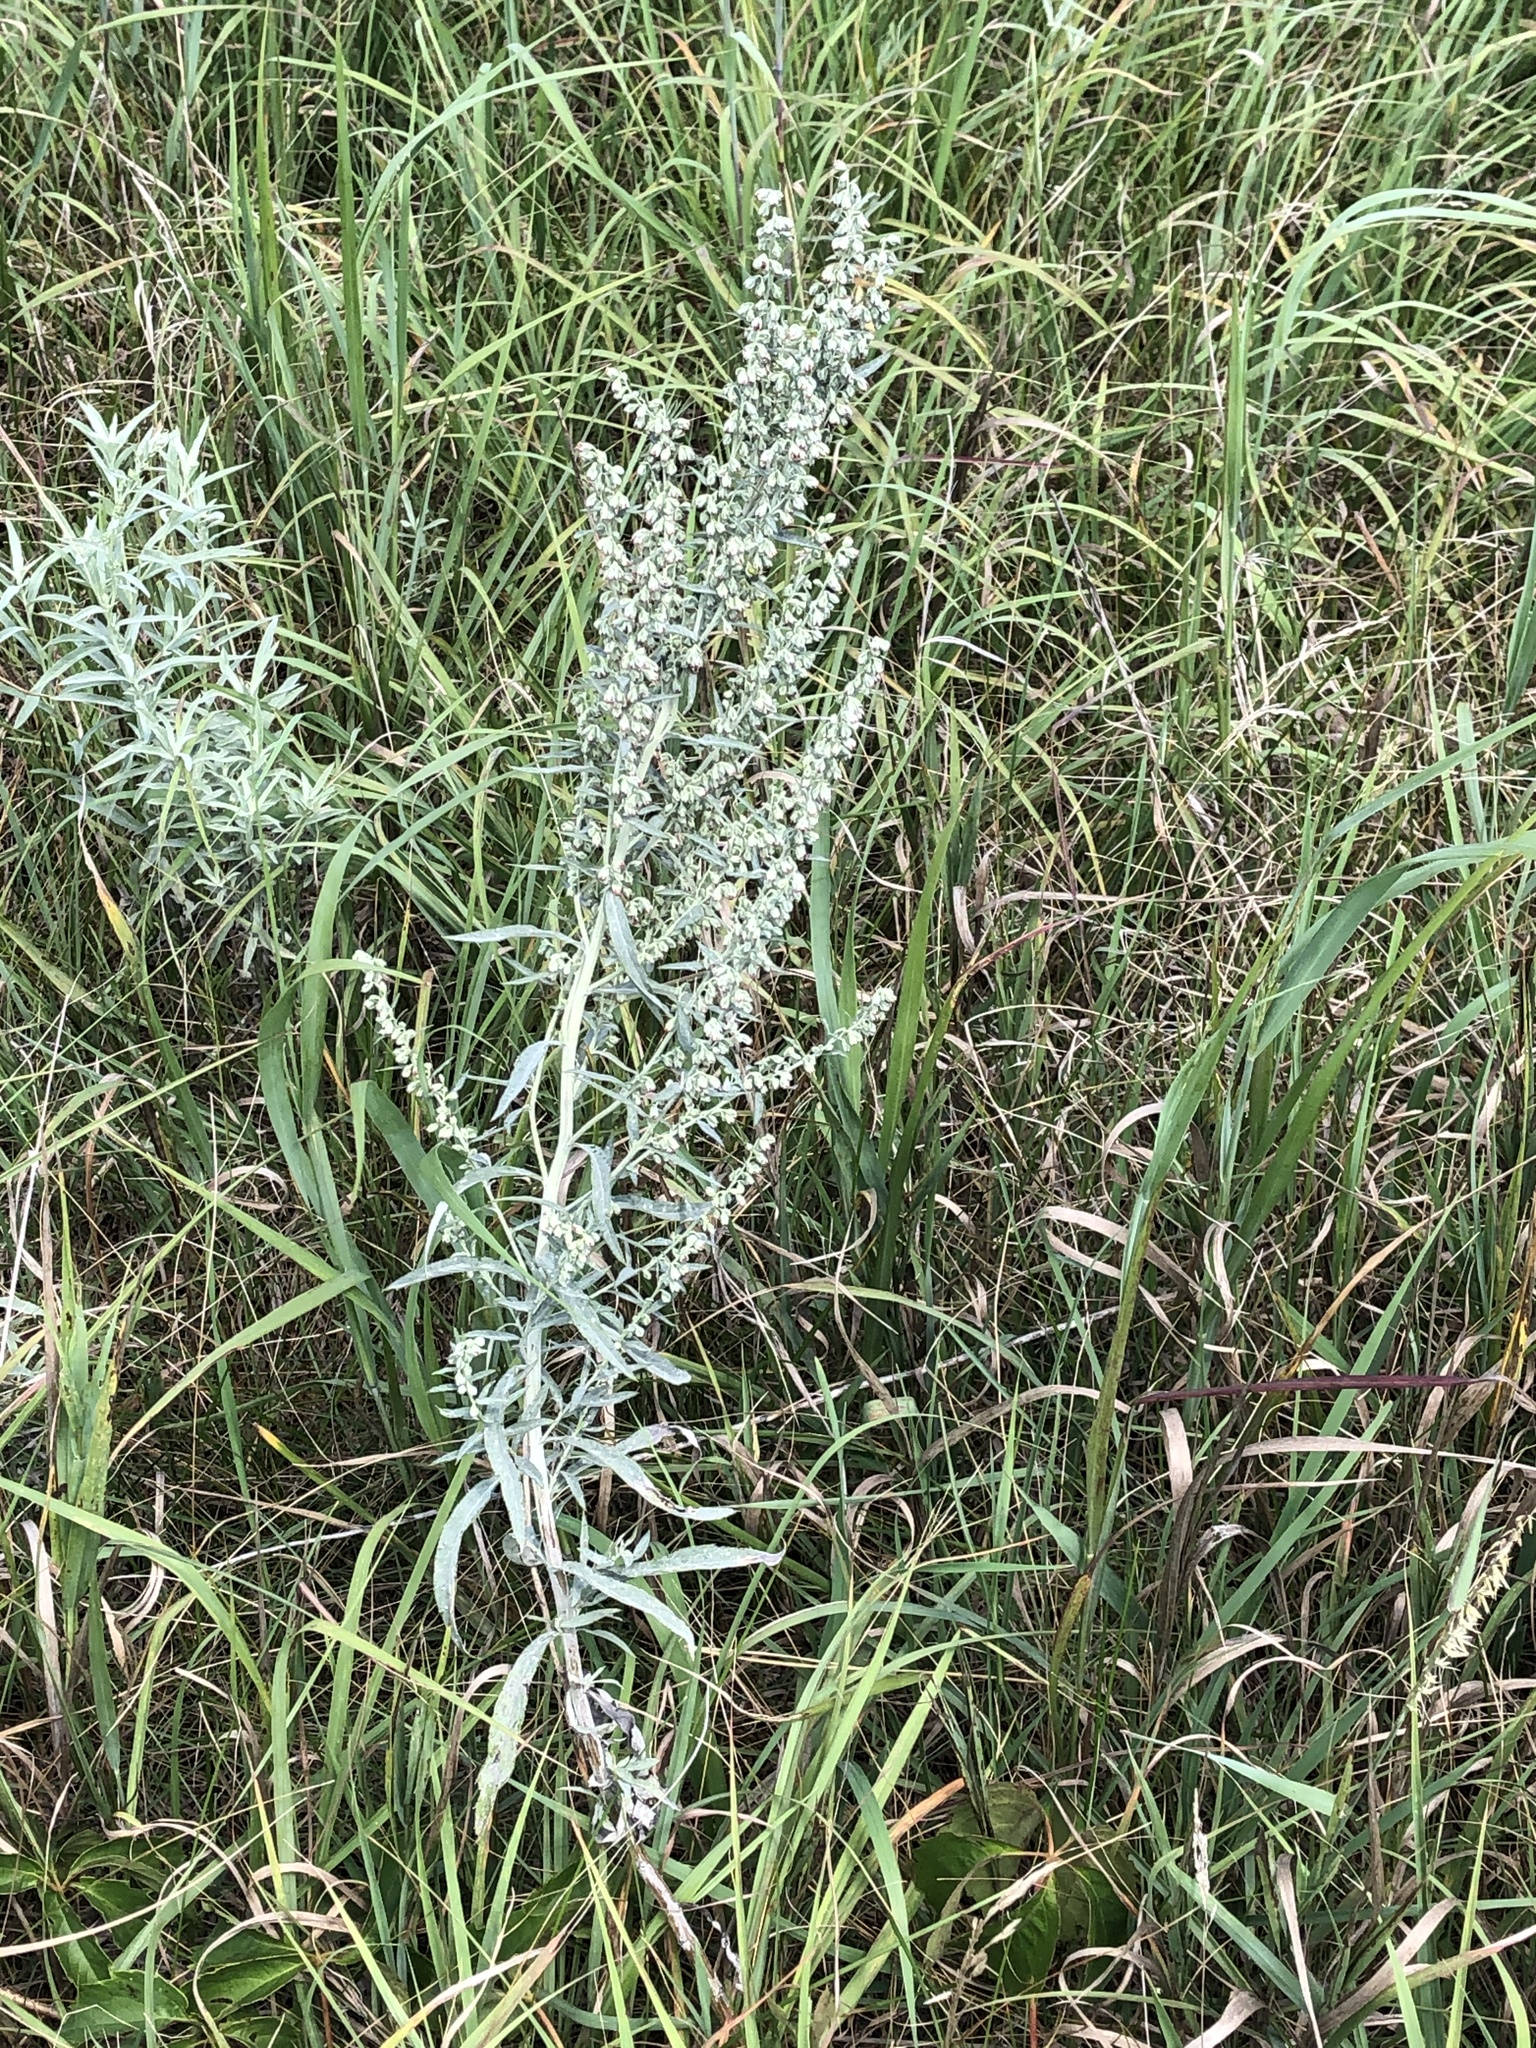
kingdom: Plantae
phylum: Tracheophyta
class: Magnoliopsida
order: Asterales
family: Asteraceae
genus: Artemisia
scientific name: Artemisia ludoviciana
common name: Western mugwort
